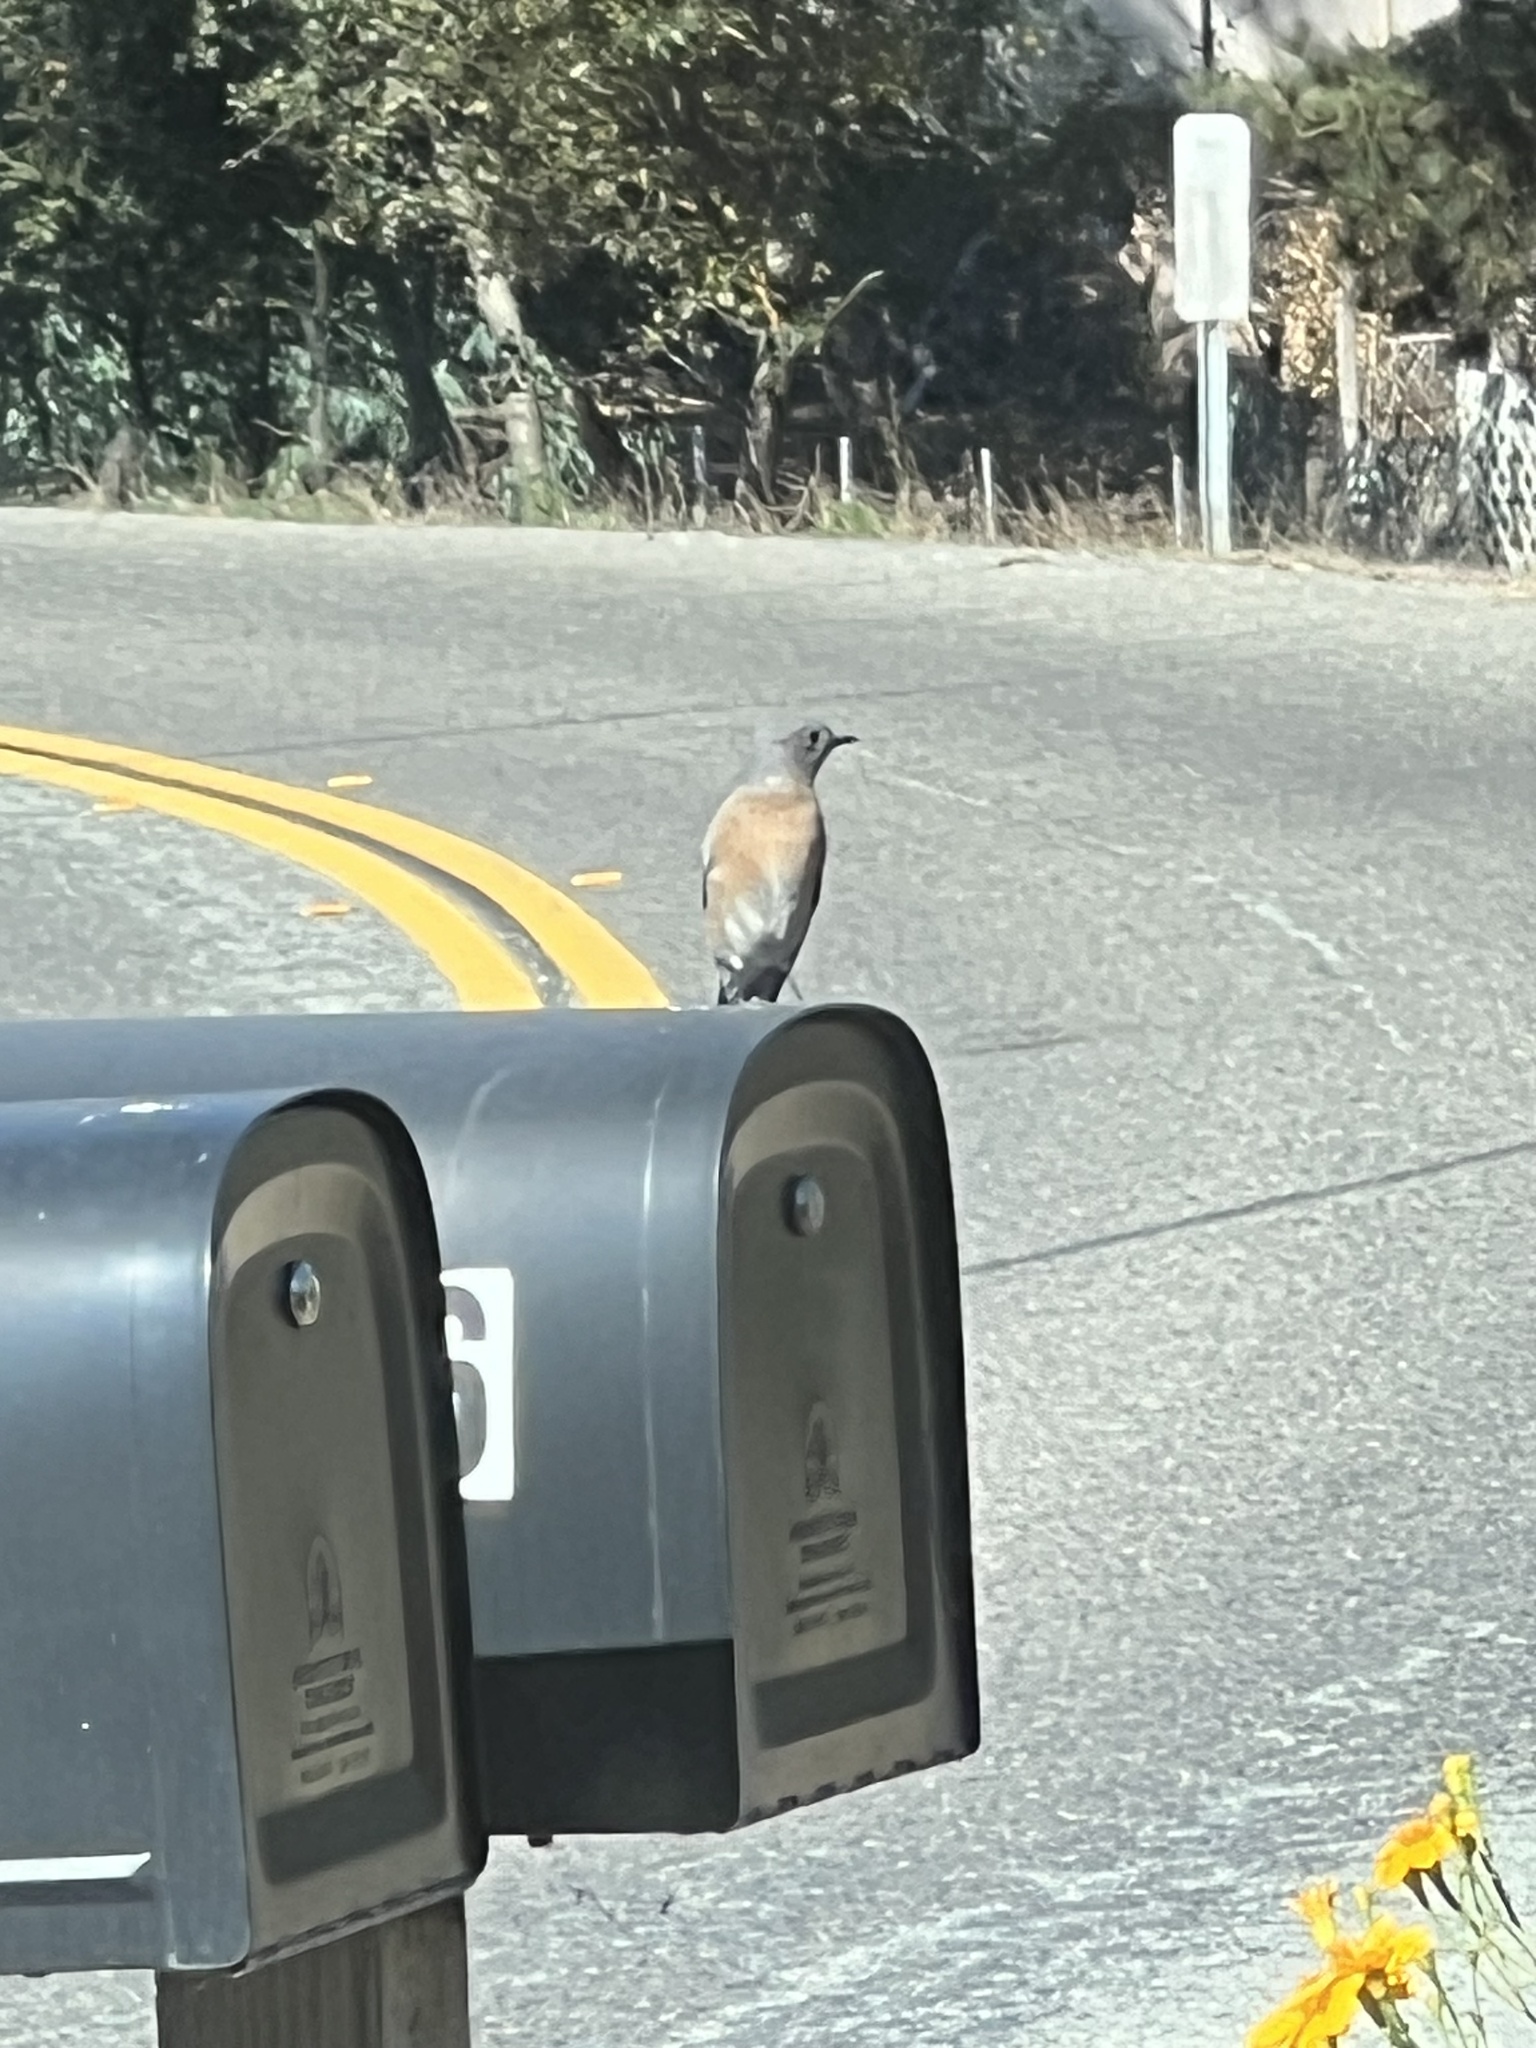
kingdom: Animalia
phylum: Chordata
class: Aves
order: Passeriformes
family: Turdidae
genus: Sialia
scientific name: Sialia mexicana
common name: Western bluebird
